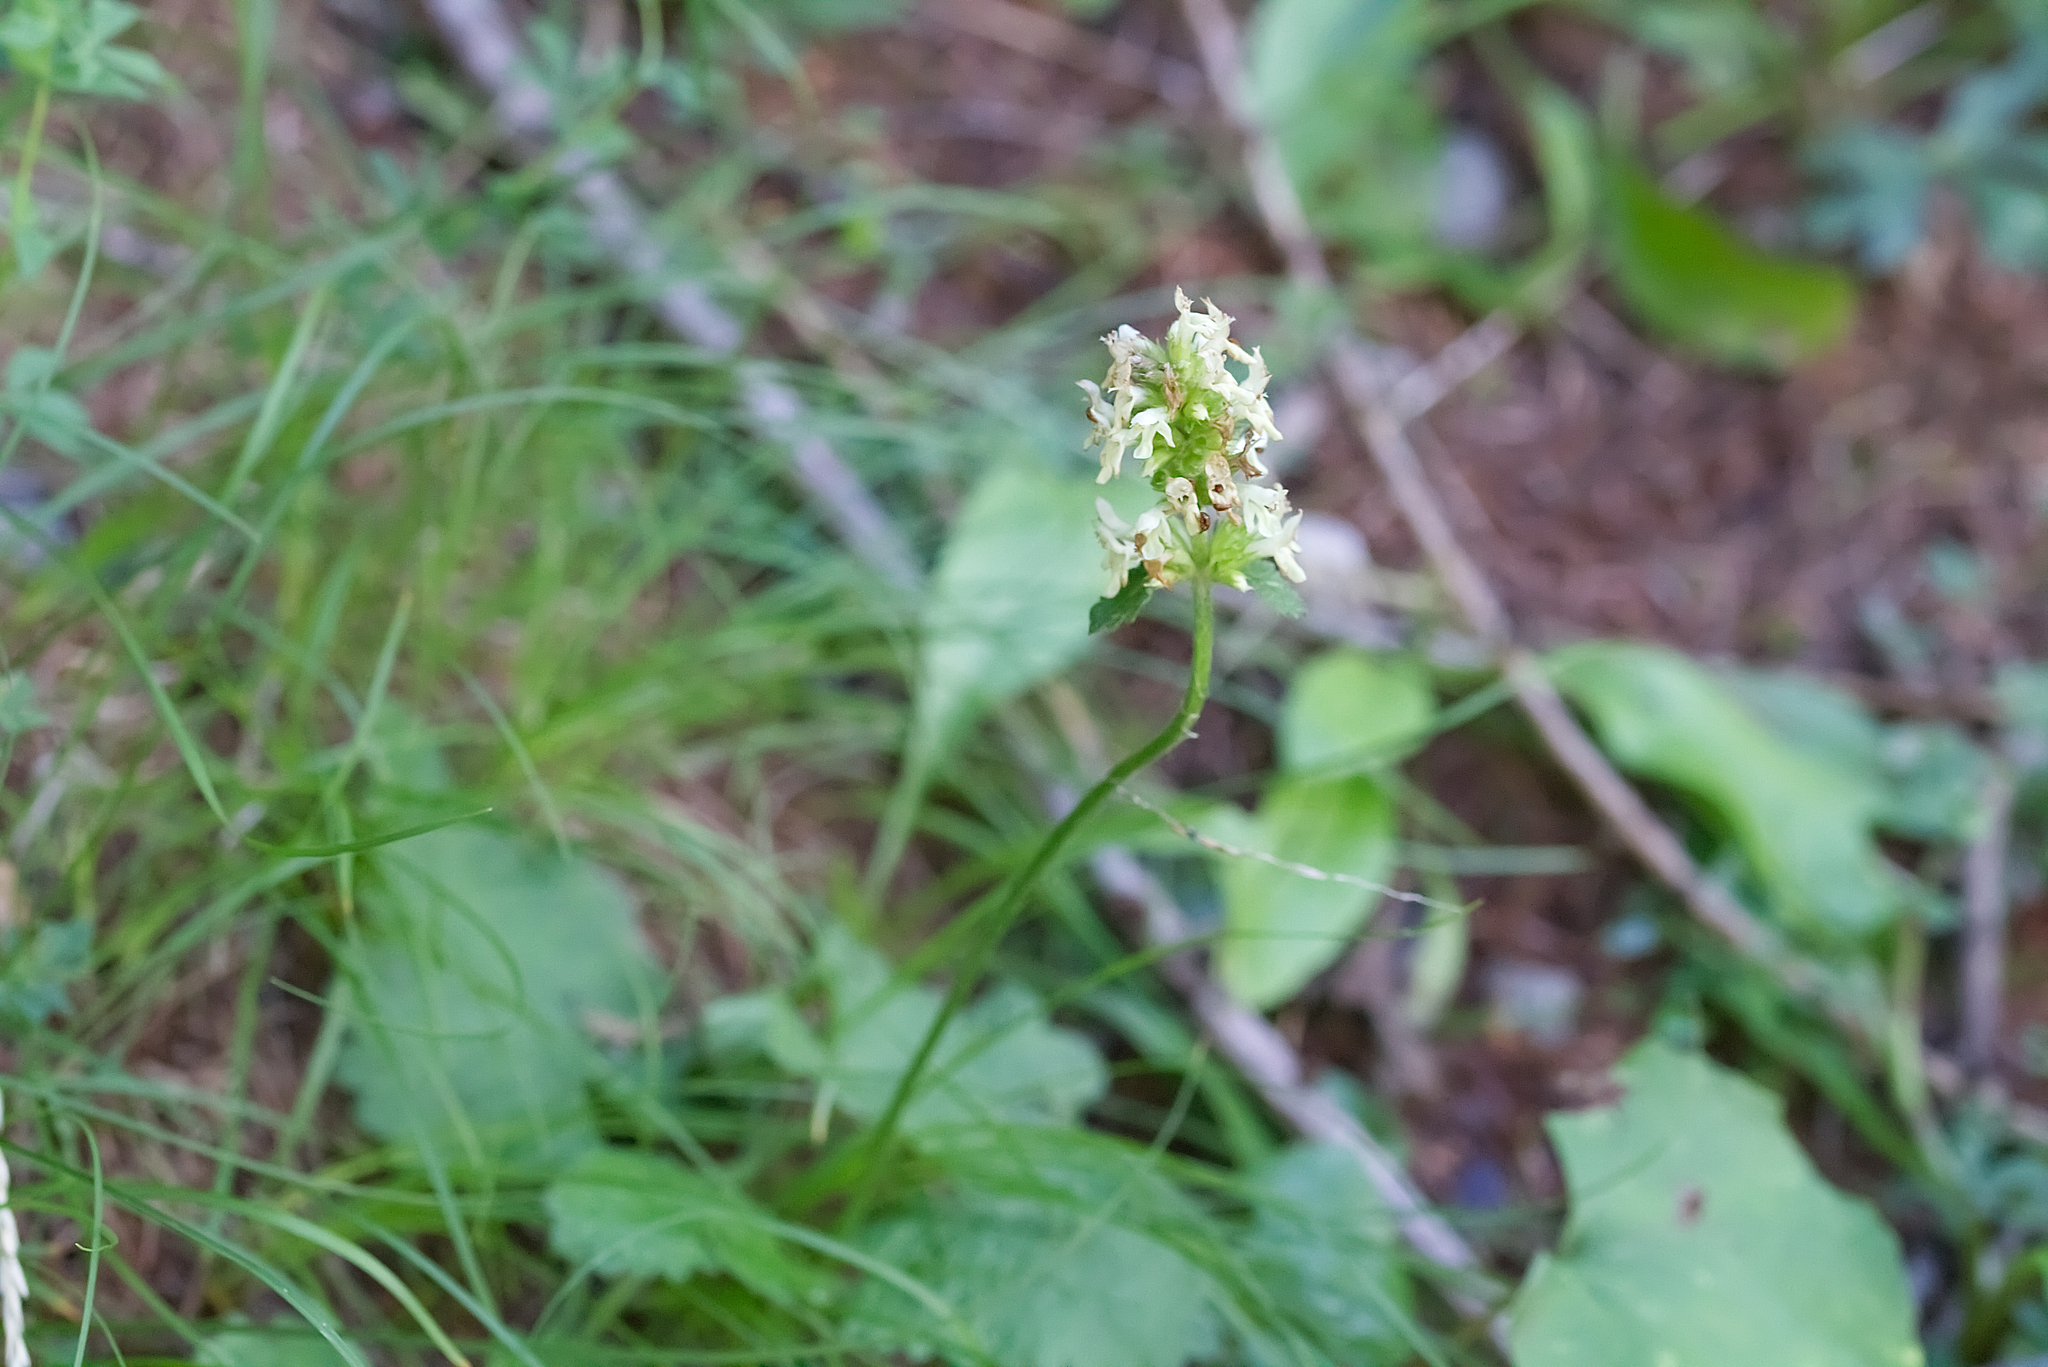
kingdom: Plantae
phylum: Tracheophyta
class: Magnoliopsida
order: Lamiales
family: Lamiaceae
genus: Betonica
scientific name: Betonica alopecuros
